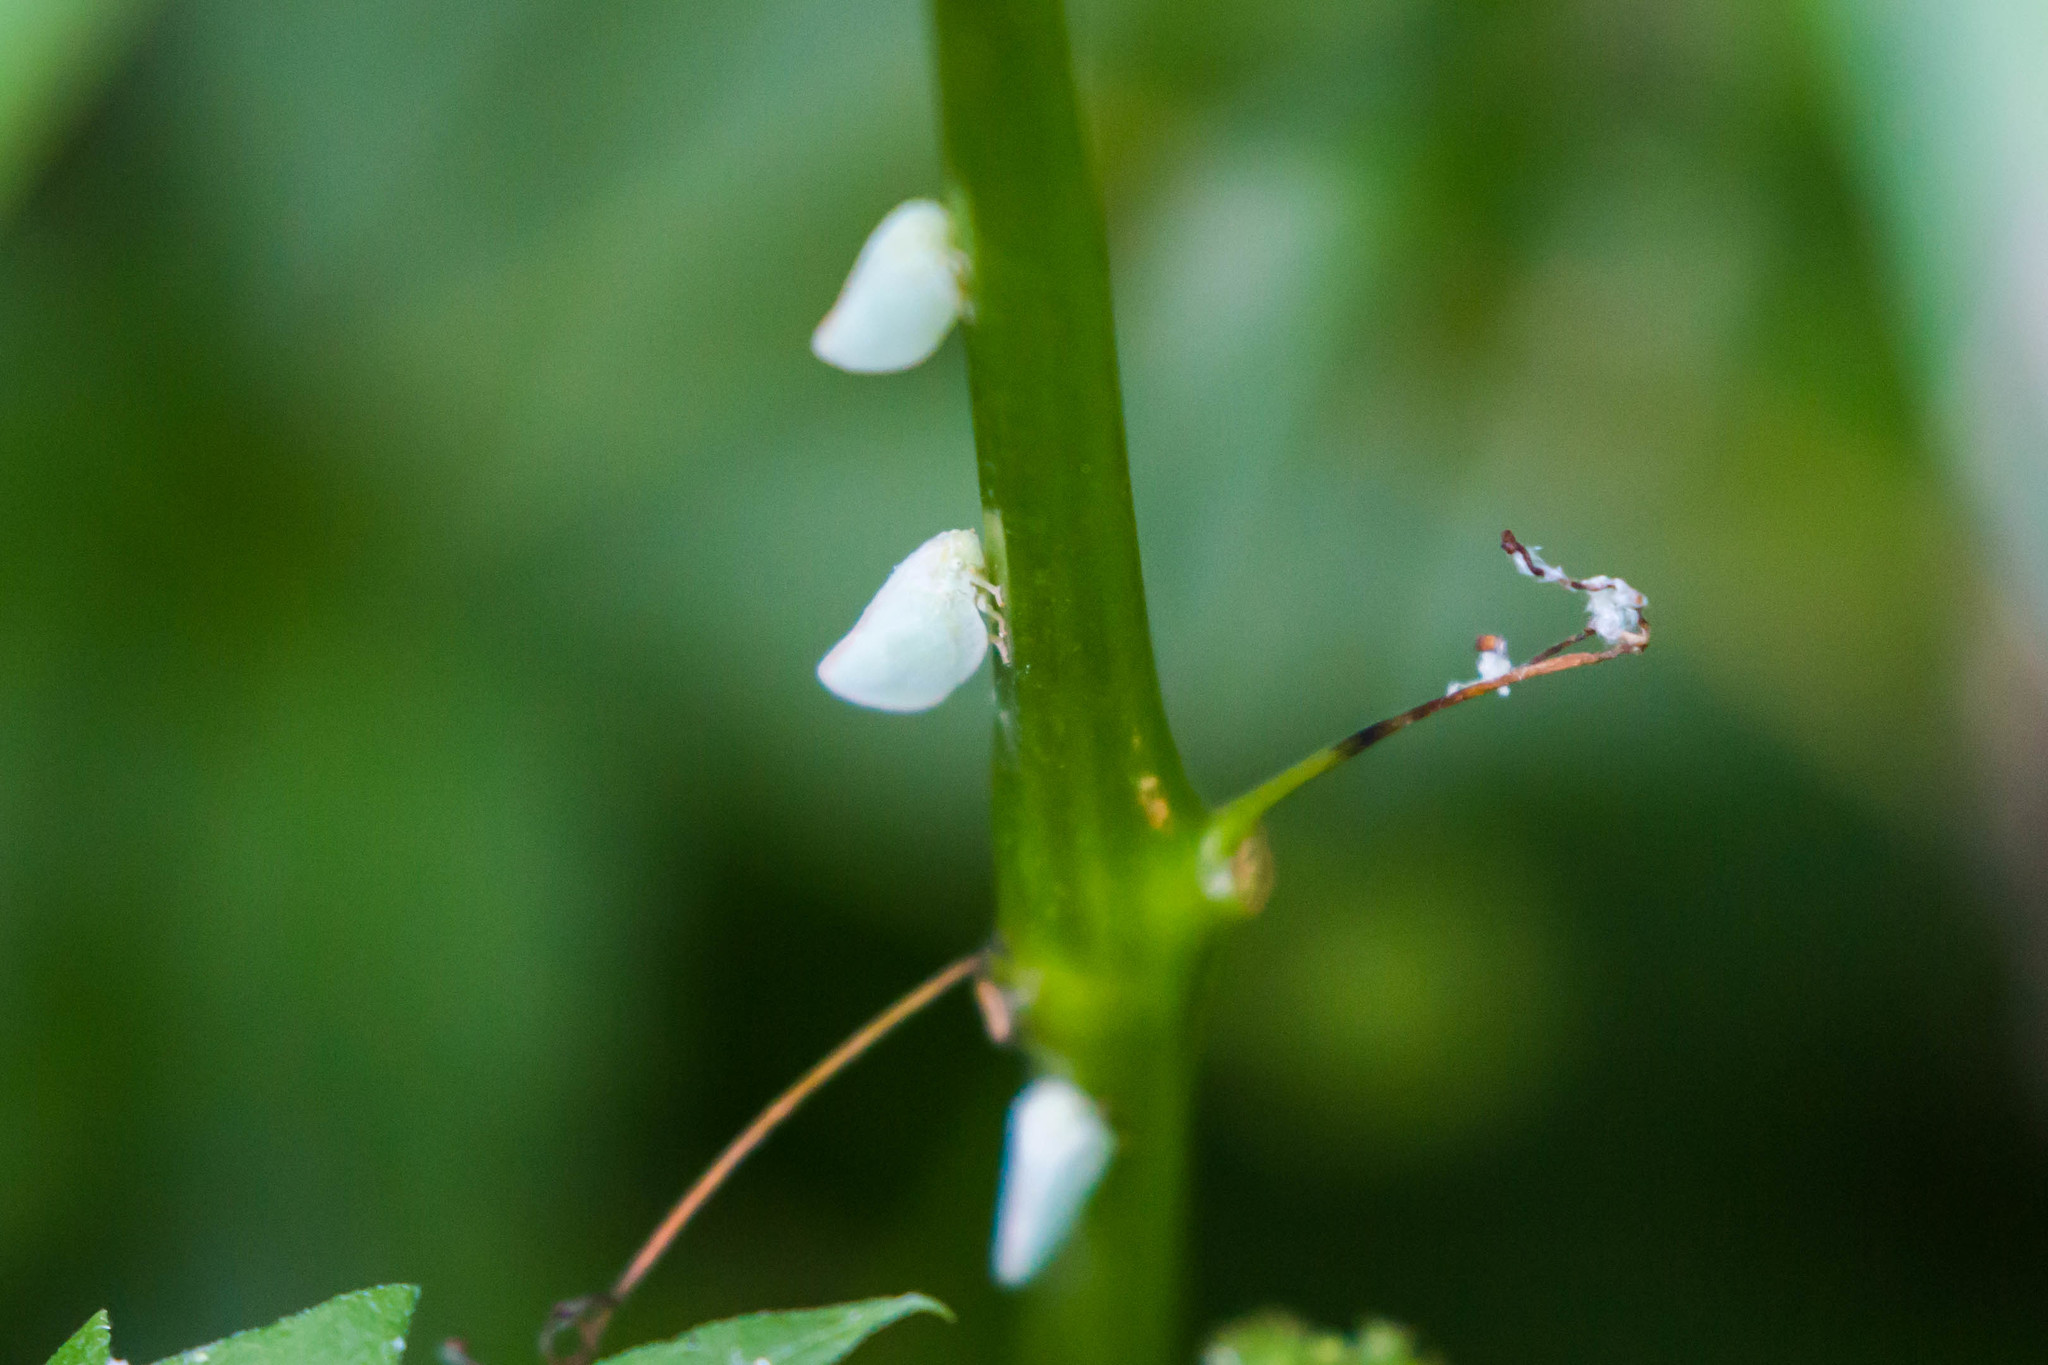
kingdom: Animalia
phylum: Arthropoda
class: Insecta
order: Hemiptera
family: Flatidae
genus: Ormenoides
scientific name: Ormenoides venusta
